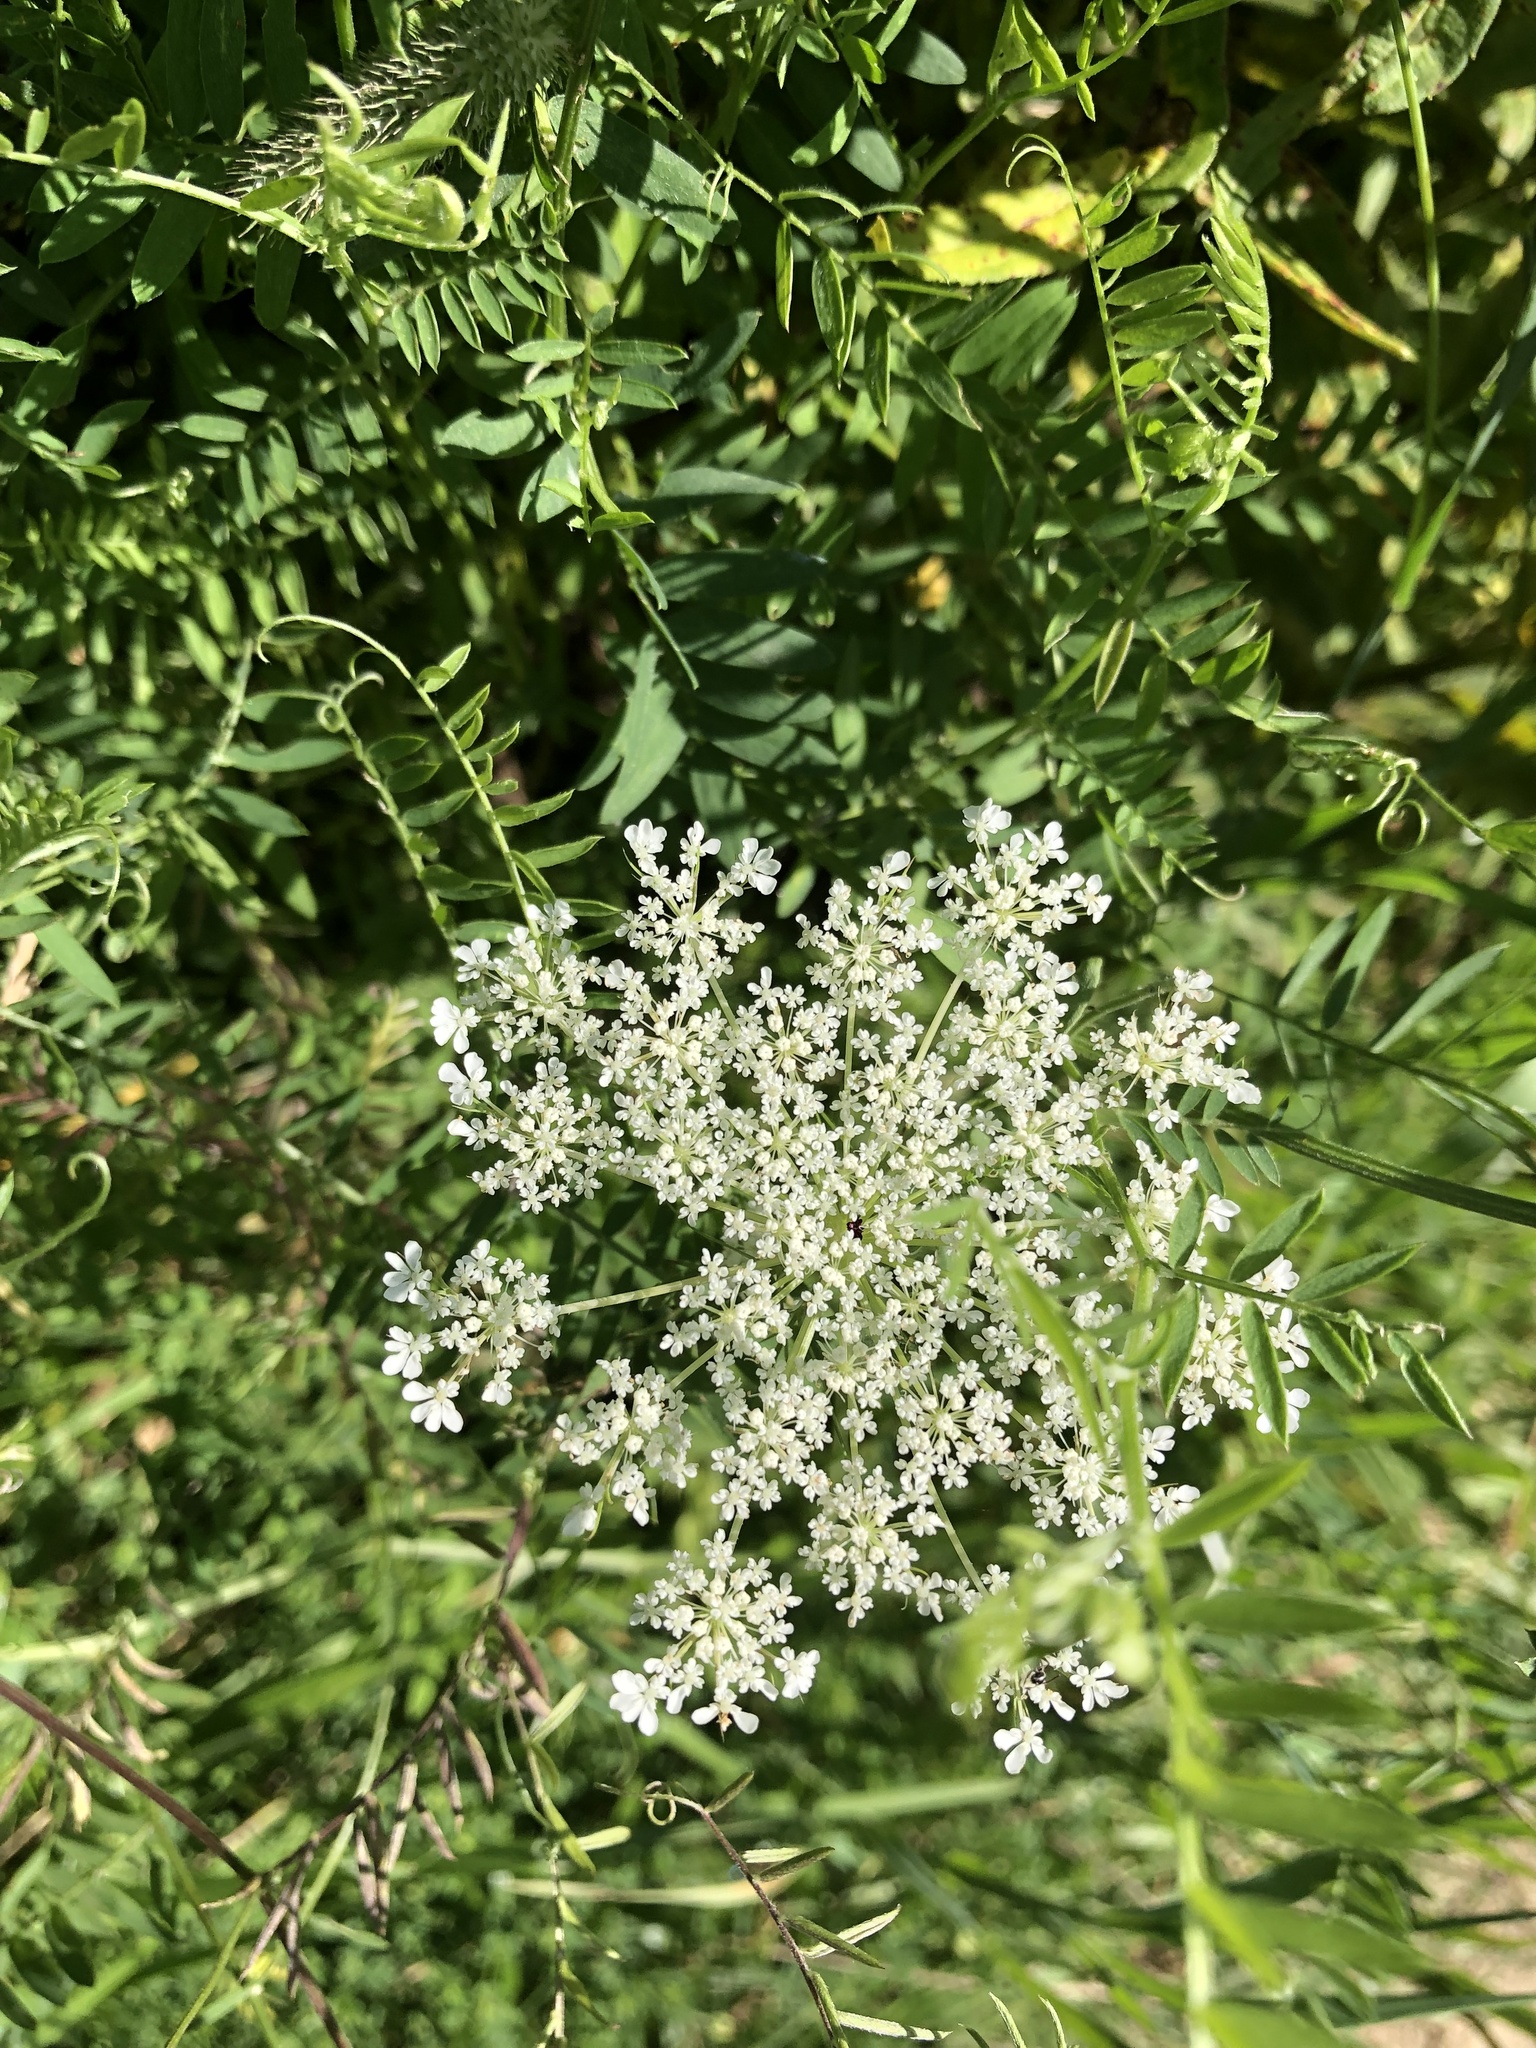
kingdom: Plantae
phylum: Tracheophyta
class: Magnoliopsida
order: Apiales
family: Apiaceae
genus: Daucus
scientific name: Daucus carota
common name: Wild carrot
